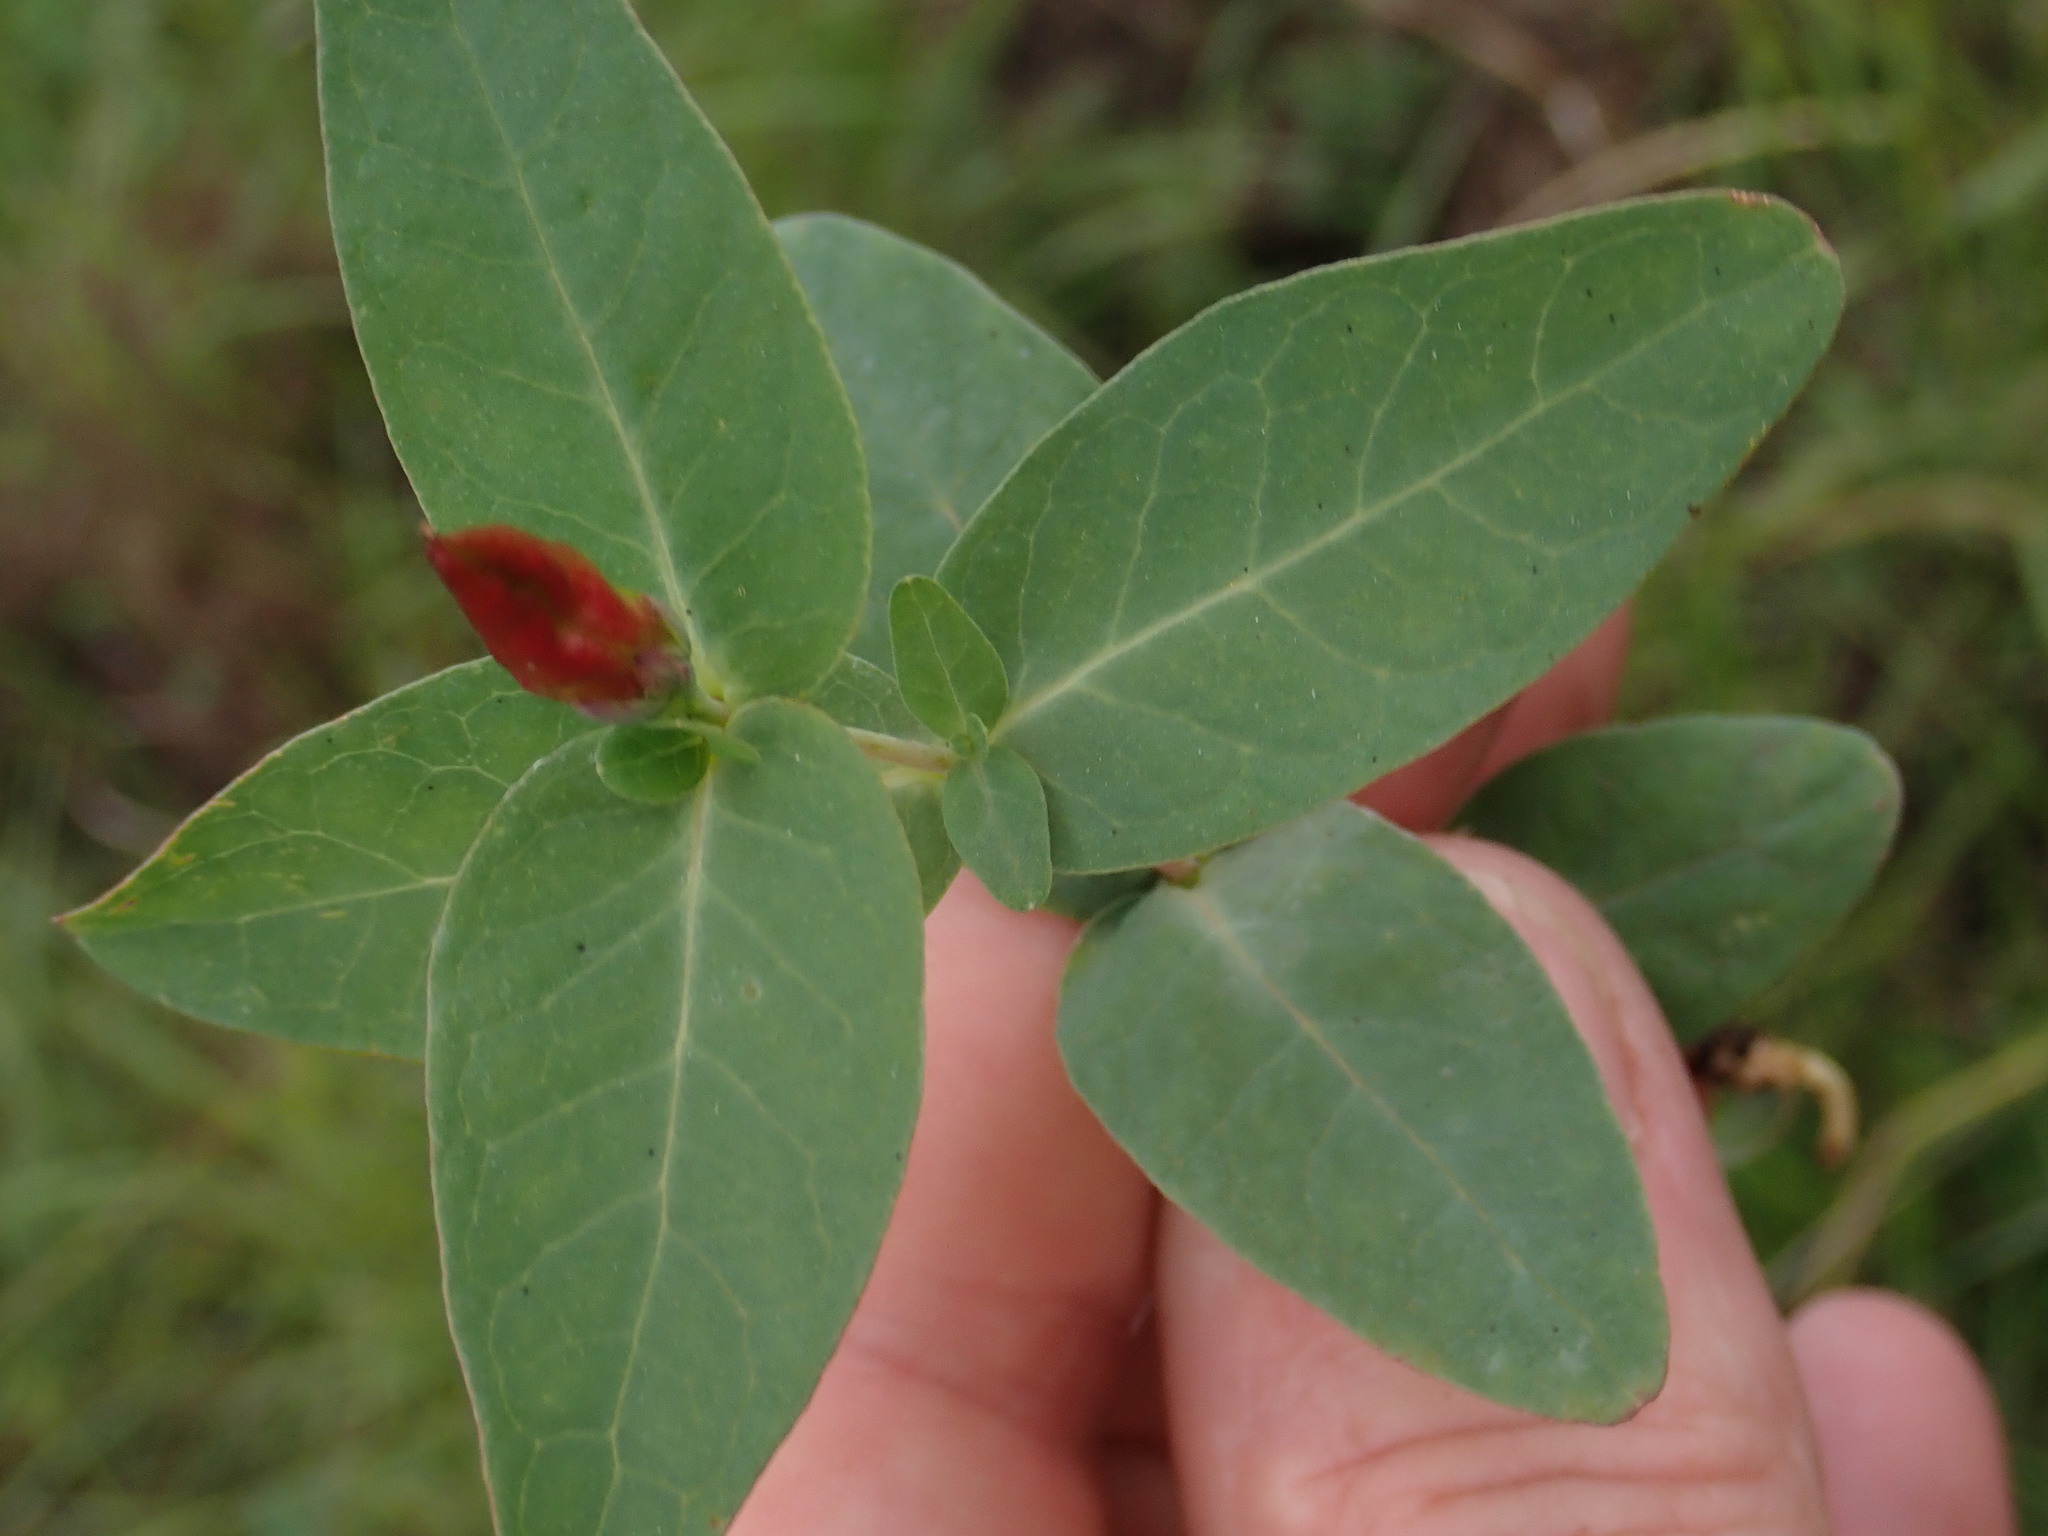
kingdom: Plantae
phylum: Tracheophyta
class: Magnoliopsida
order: Malpighiales
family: Hypericaceae
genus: Triadenum
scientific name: Triadenum fraseri
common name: Fraser's marsh st. johnswort
